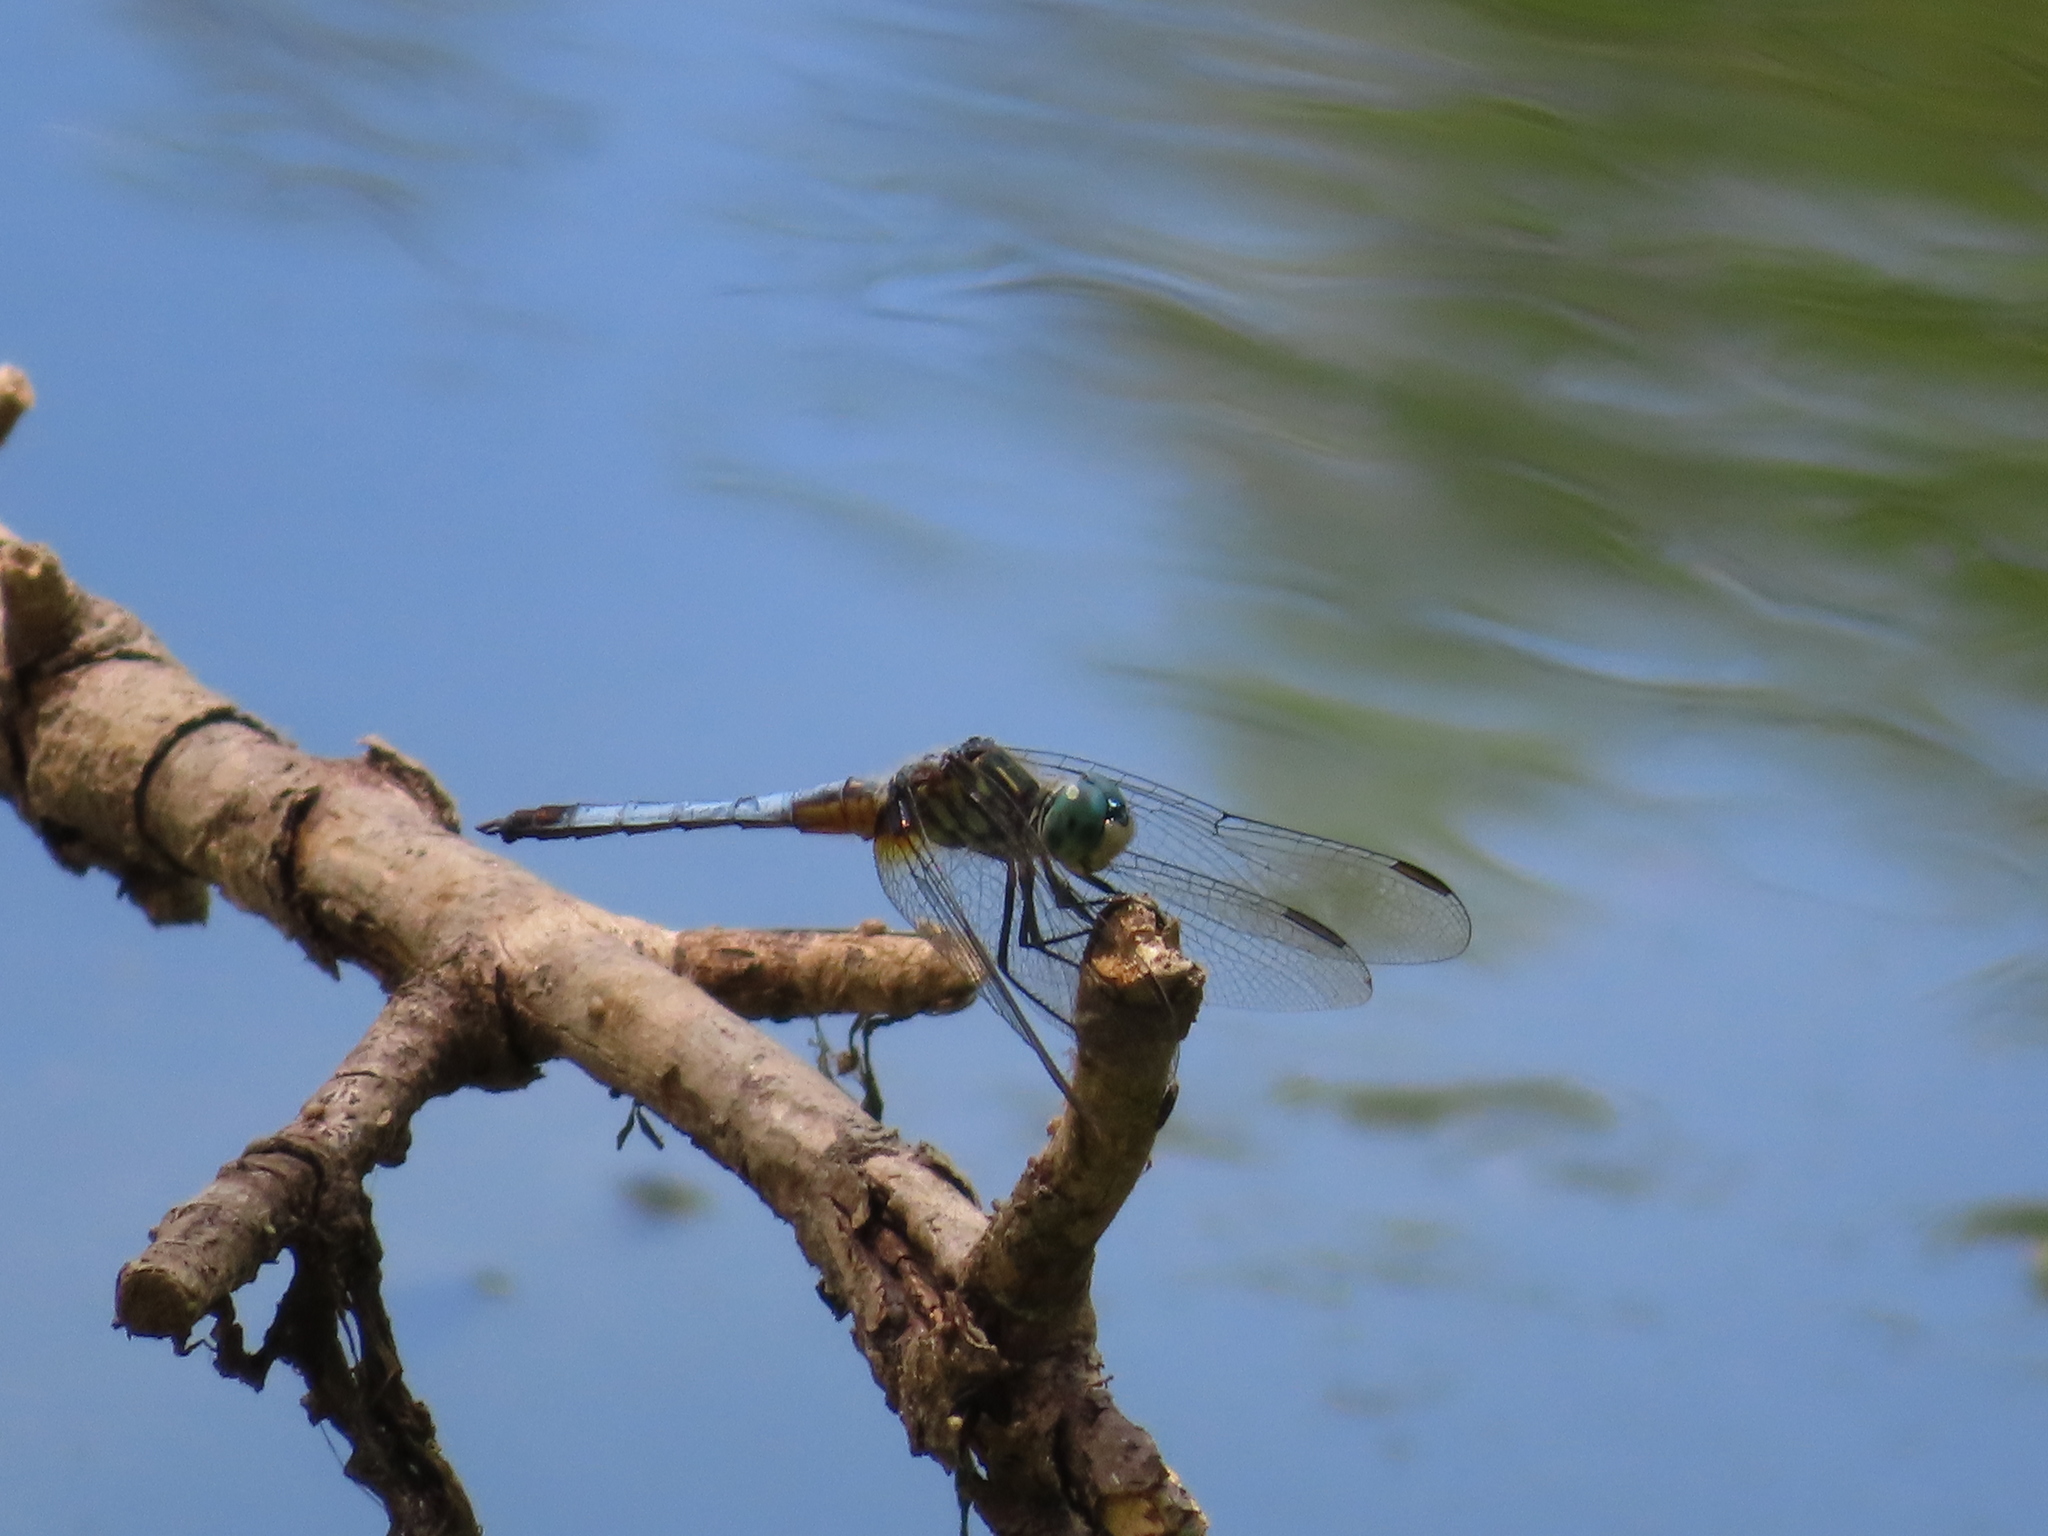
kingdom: Animalia
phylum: Arthropoda
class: Insecta
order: Odonata
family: Libellulidae
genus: Pachydiplax
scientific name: Pachydiplax longipennis
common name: Blue dasher
